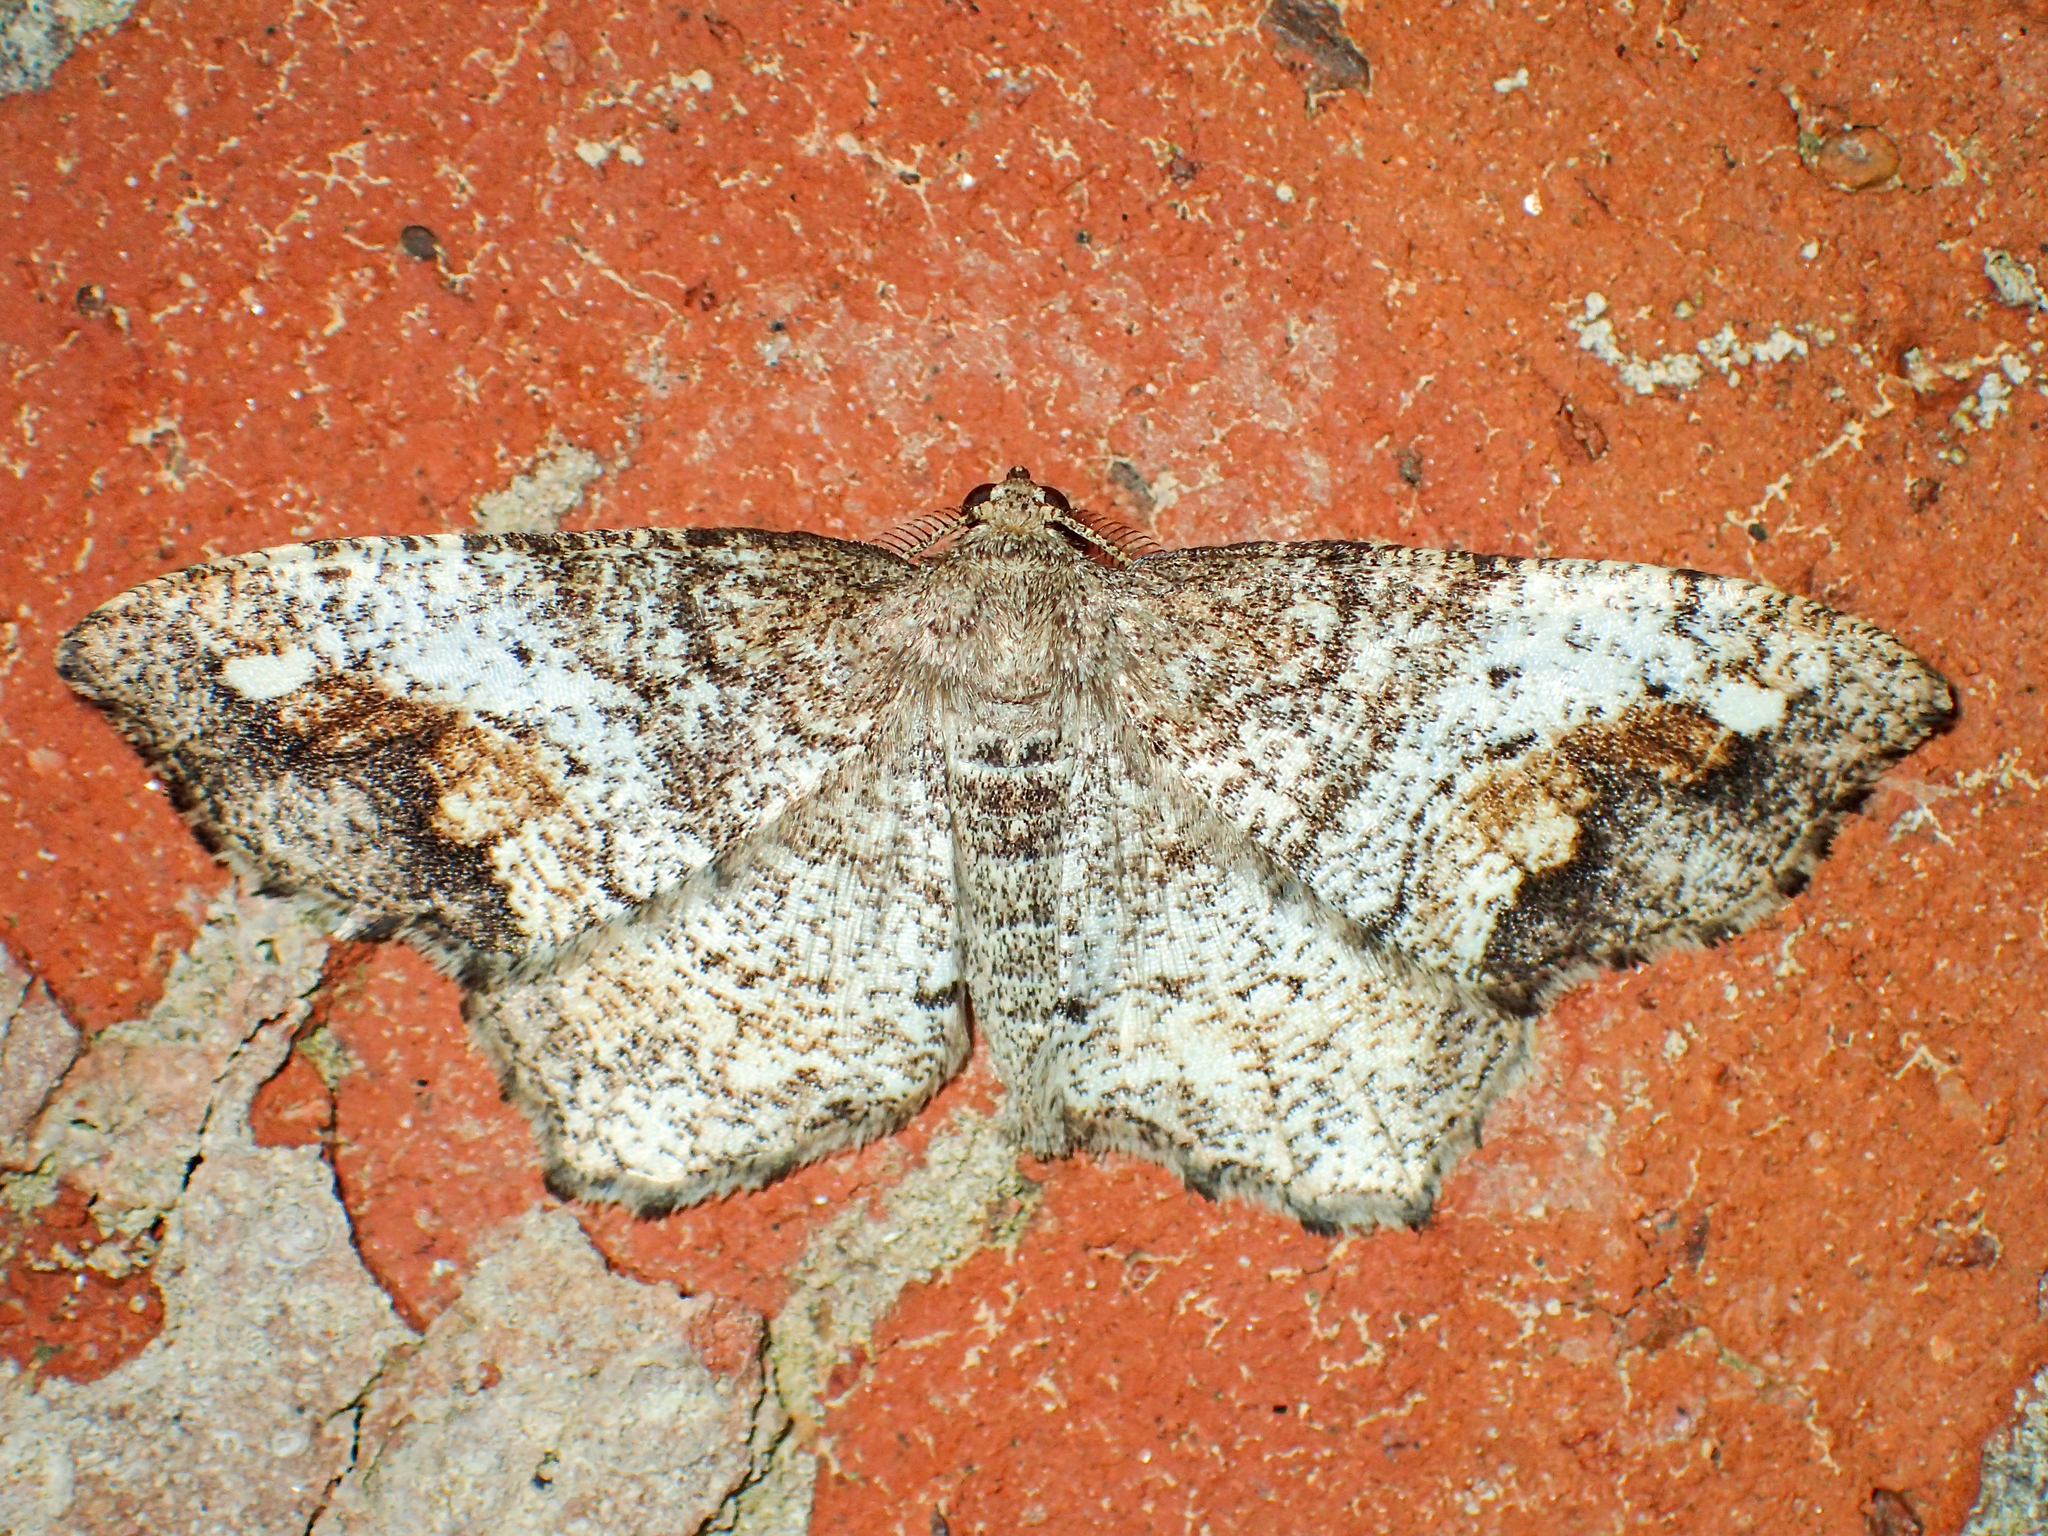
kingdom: Animalia
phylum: Arthropoda
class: Insecta
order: Lepidoptera
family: Geometridae
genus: Hypagyrtis
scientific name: Hypagyrtis unipunctata
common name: One-spotted variant
